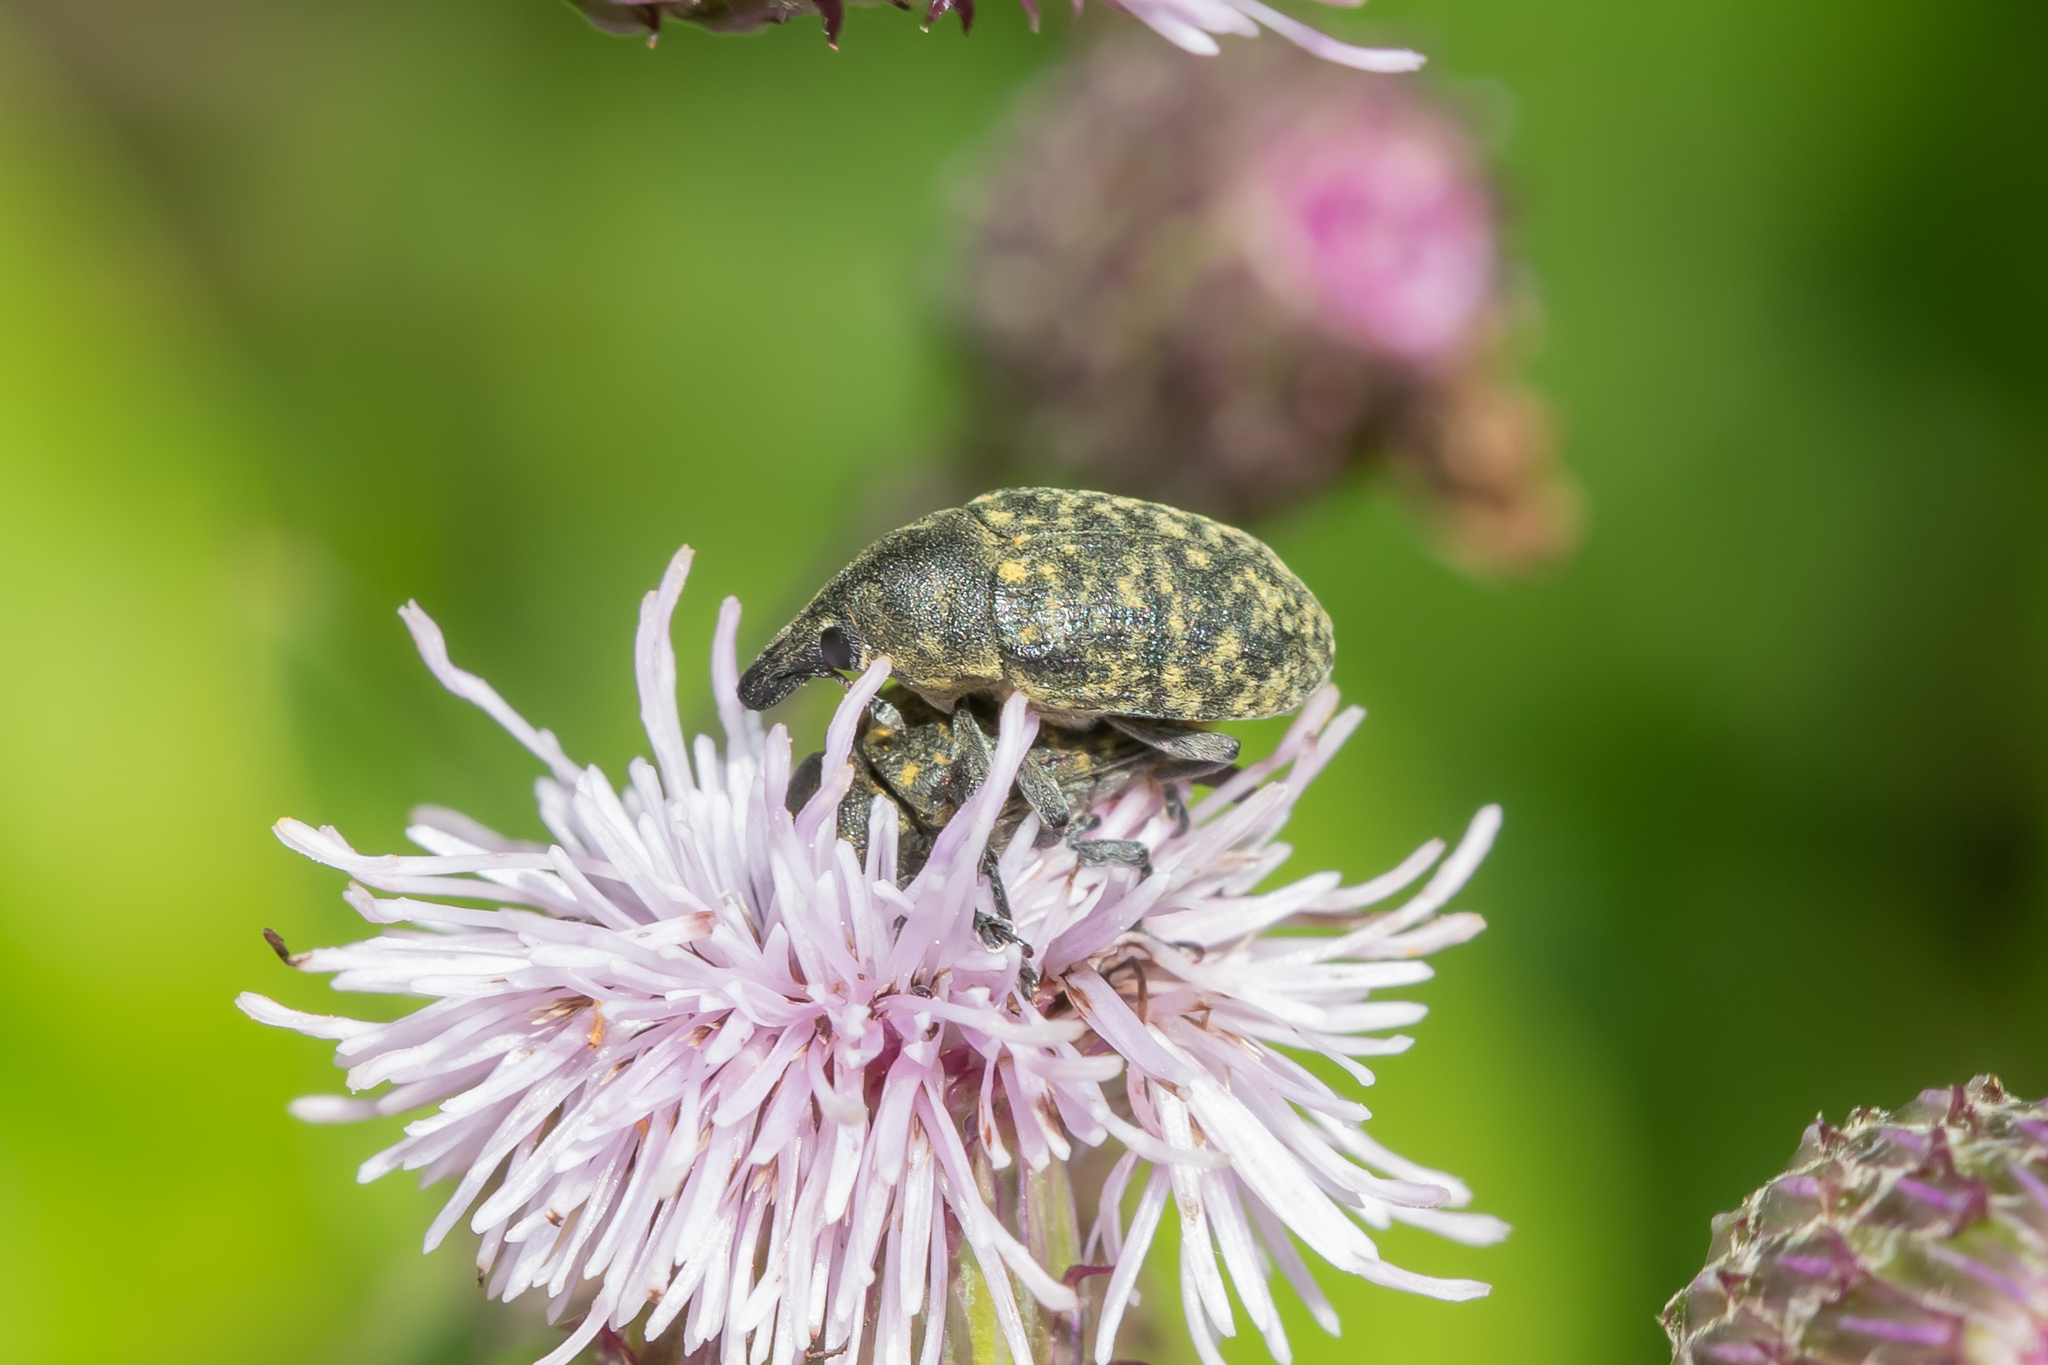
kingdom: Animalia
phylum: Arthropoda
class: Insecta
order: Coleoptera
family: Curculionidae
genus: Larinus
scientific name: Larinus turbinatus
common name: Weevil
